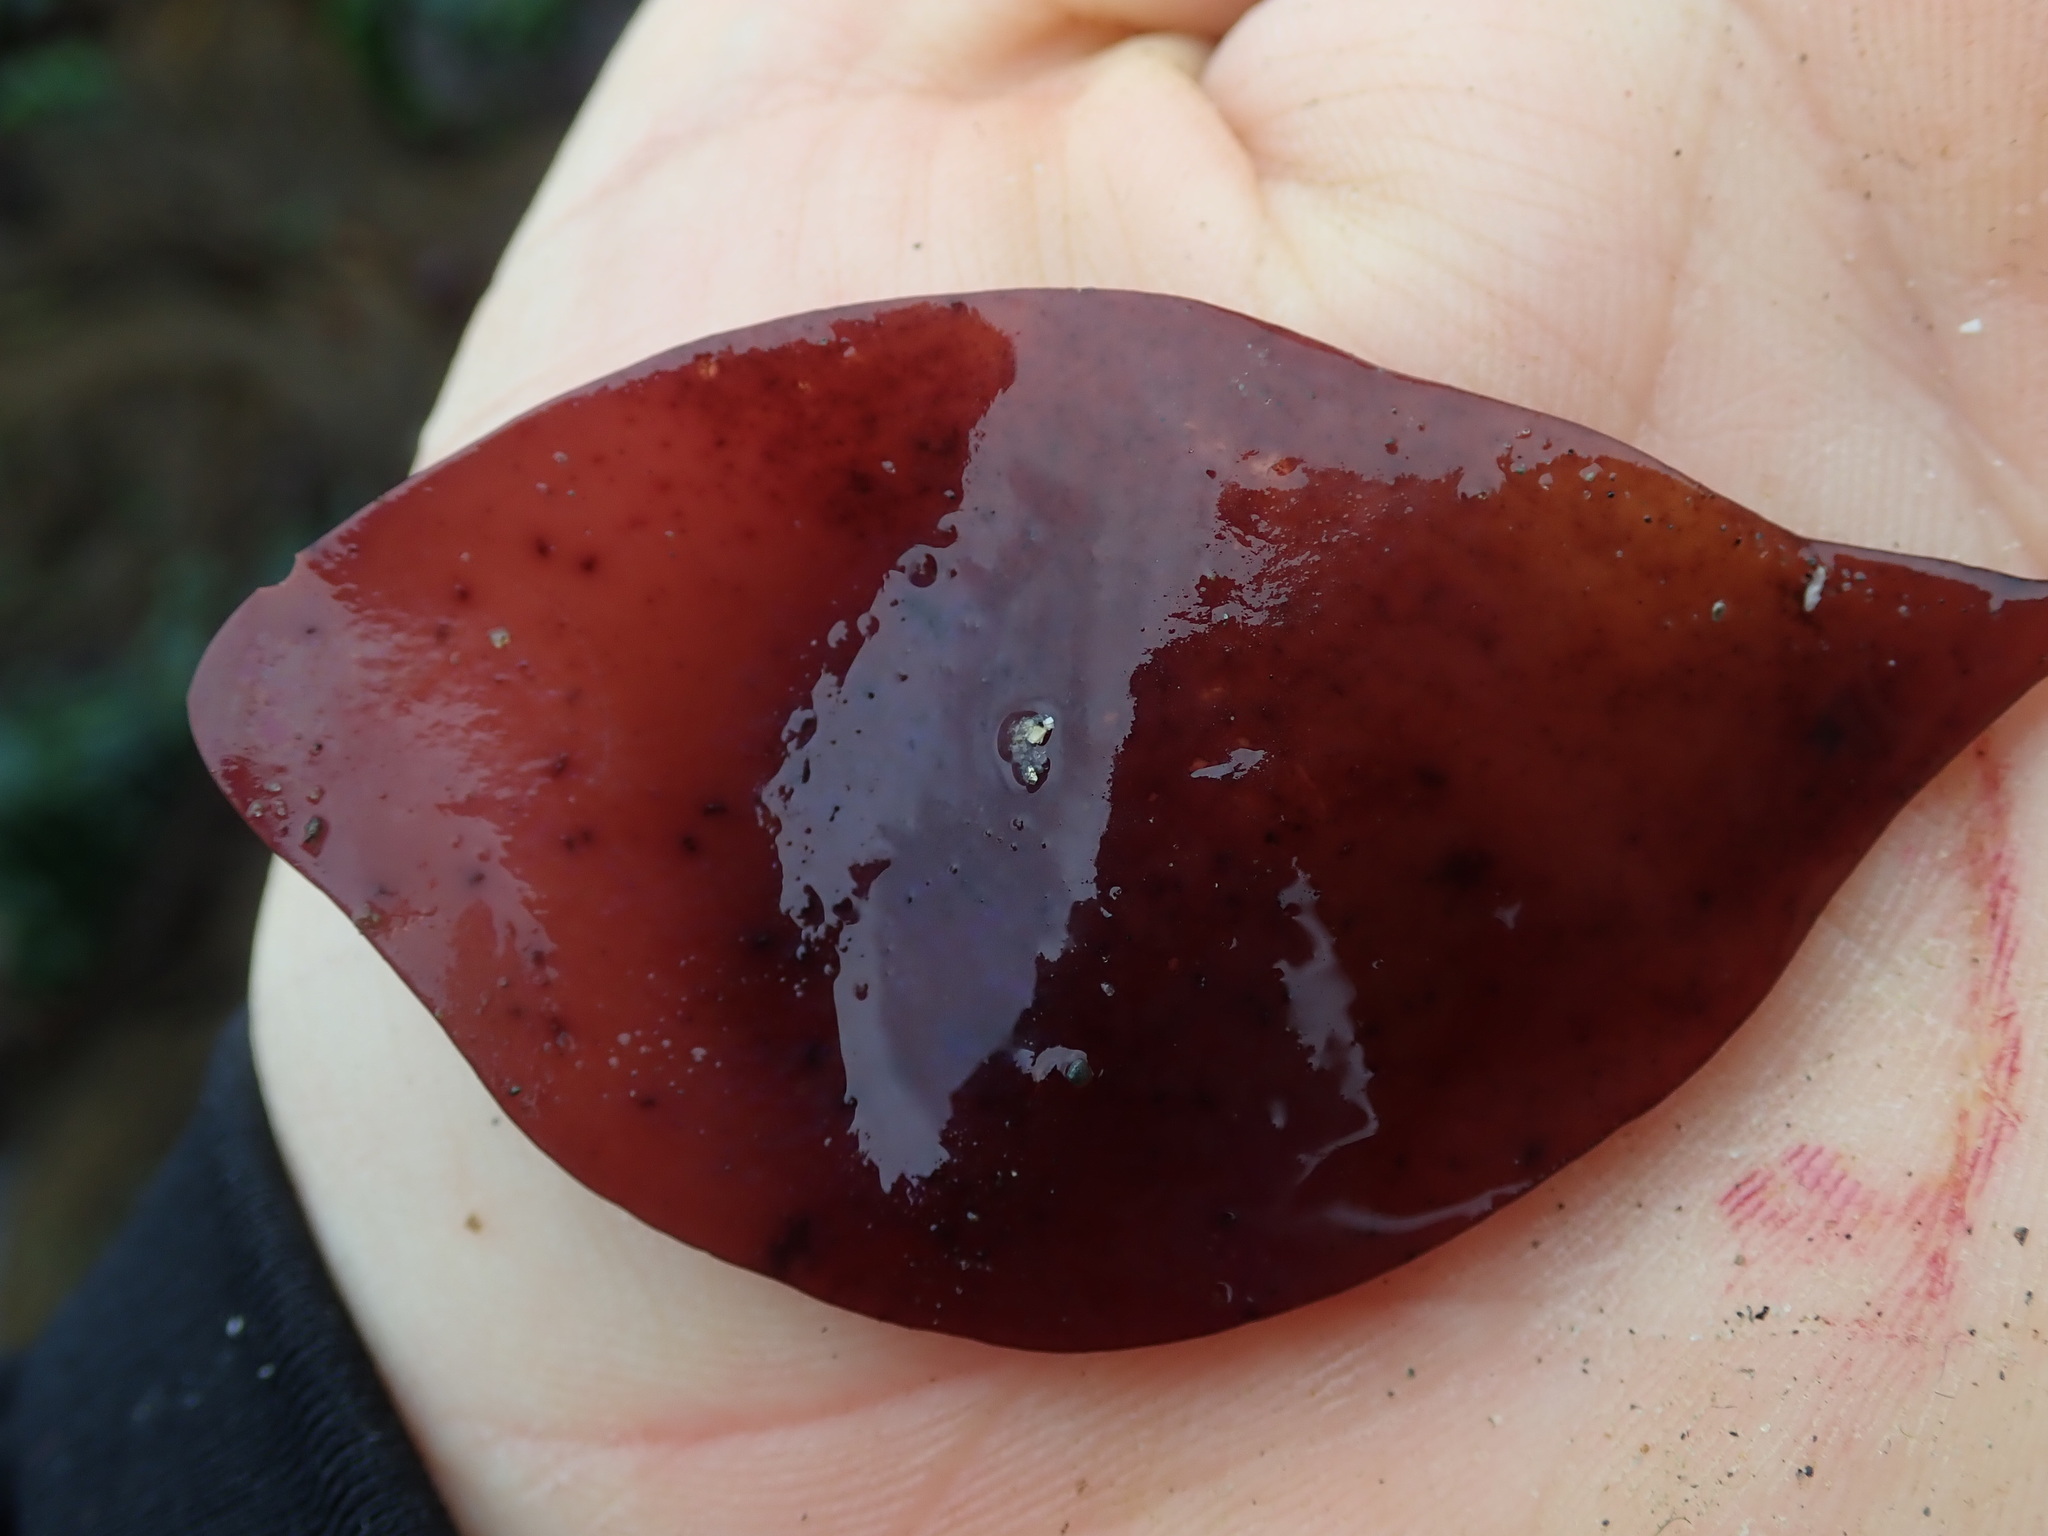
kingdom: Plantae
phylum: Rhodophyta
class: Florideophyceae
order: Gigartinales
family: Gigartinaceae
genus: Mazzaella
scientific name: Mazzaella splendens
